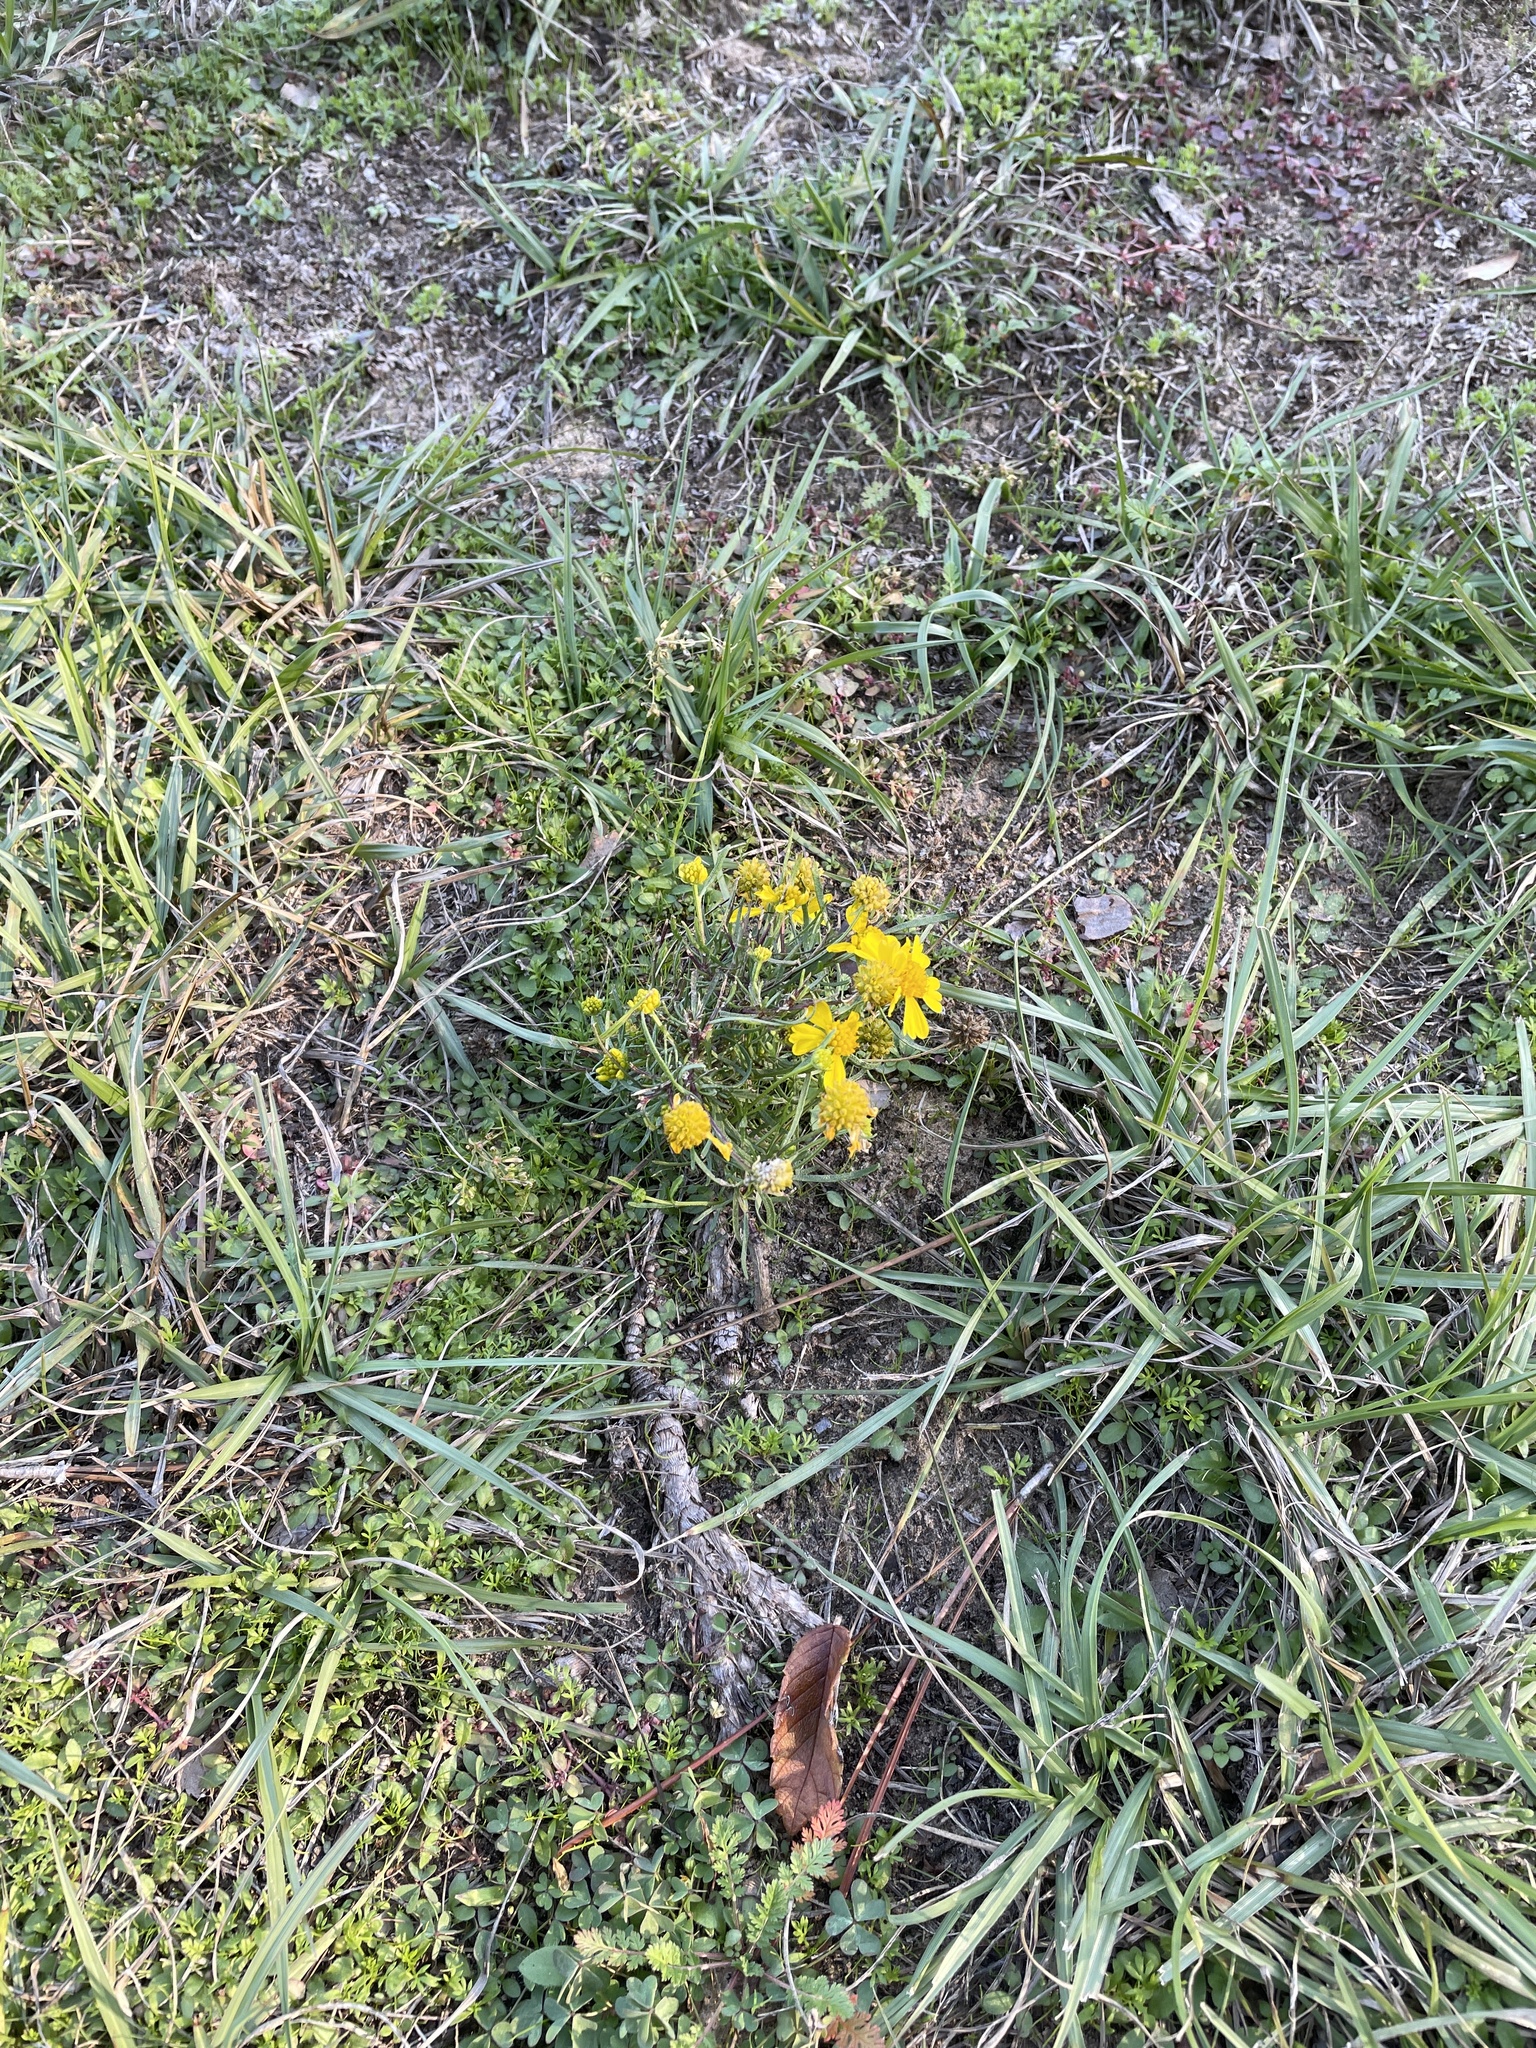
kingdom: Plantae
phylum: Tracheophyta
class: Magnoliopsida
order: Asterales
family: Asteraceae
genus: Helenium
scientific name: Helenium amarum
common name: Bitter sneezeweed
